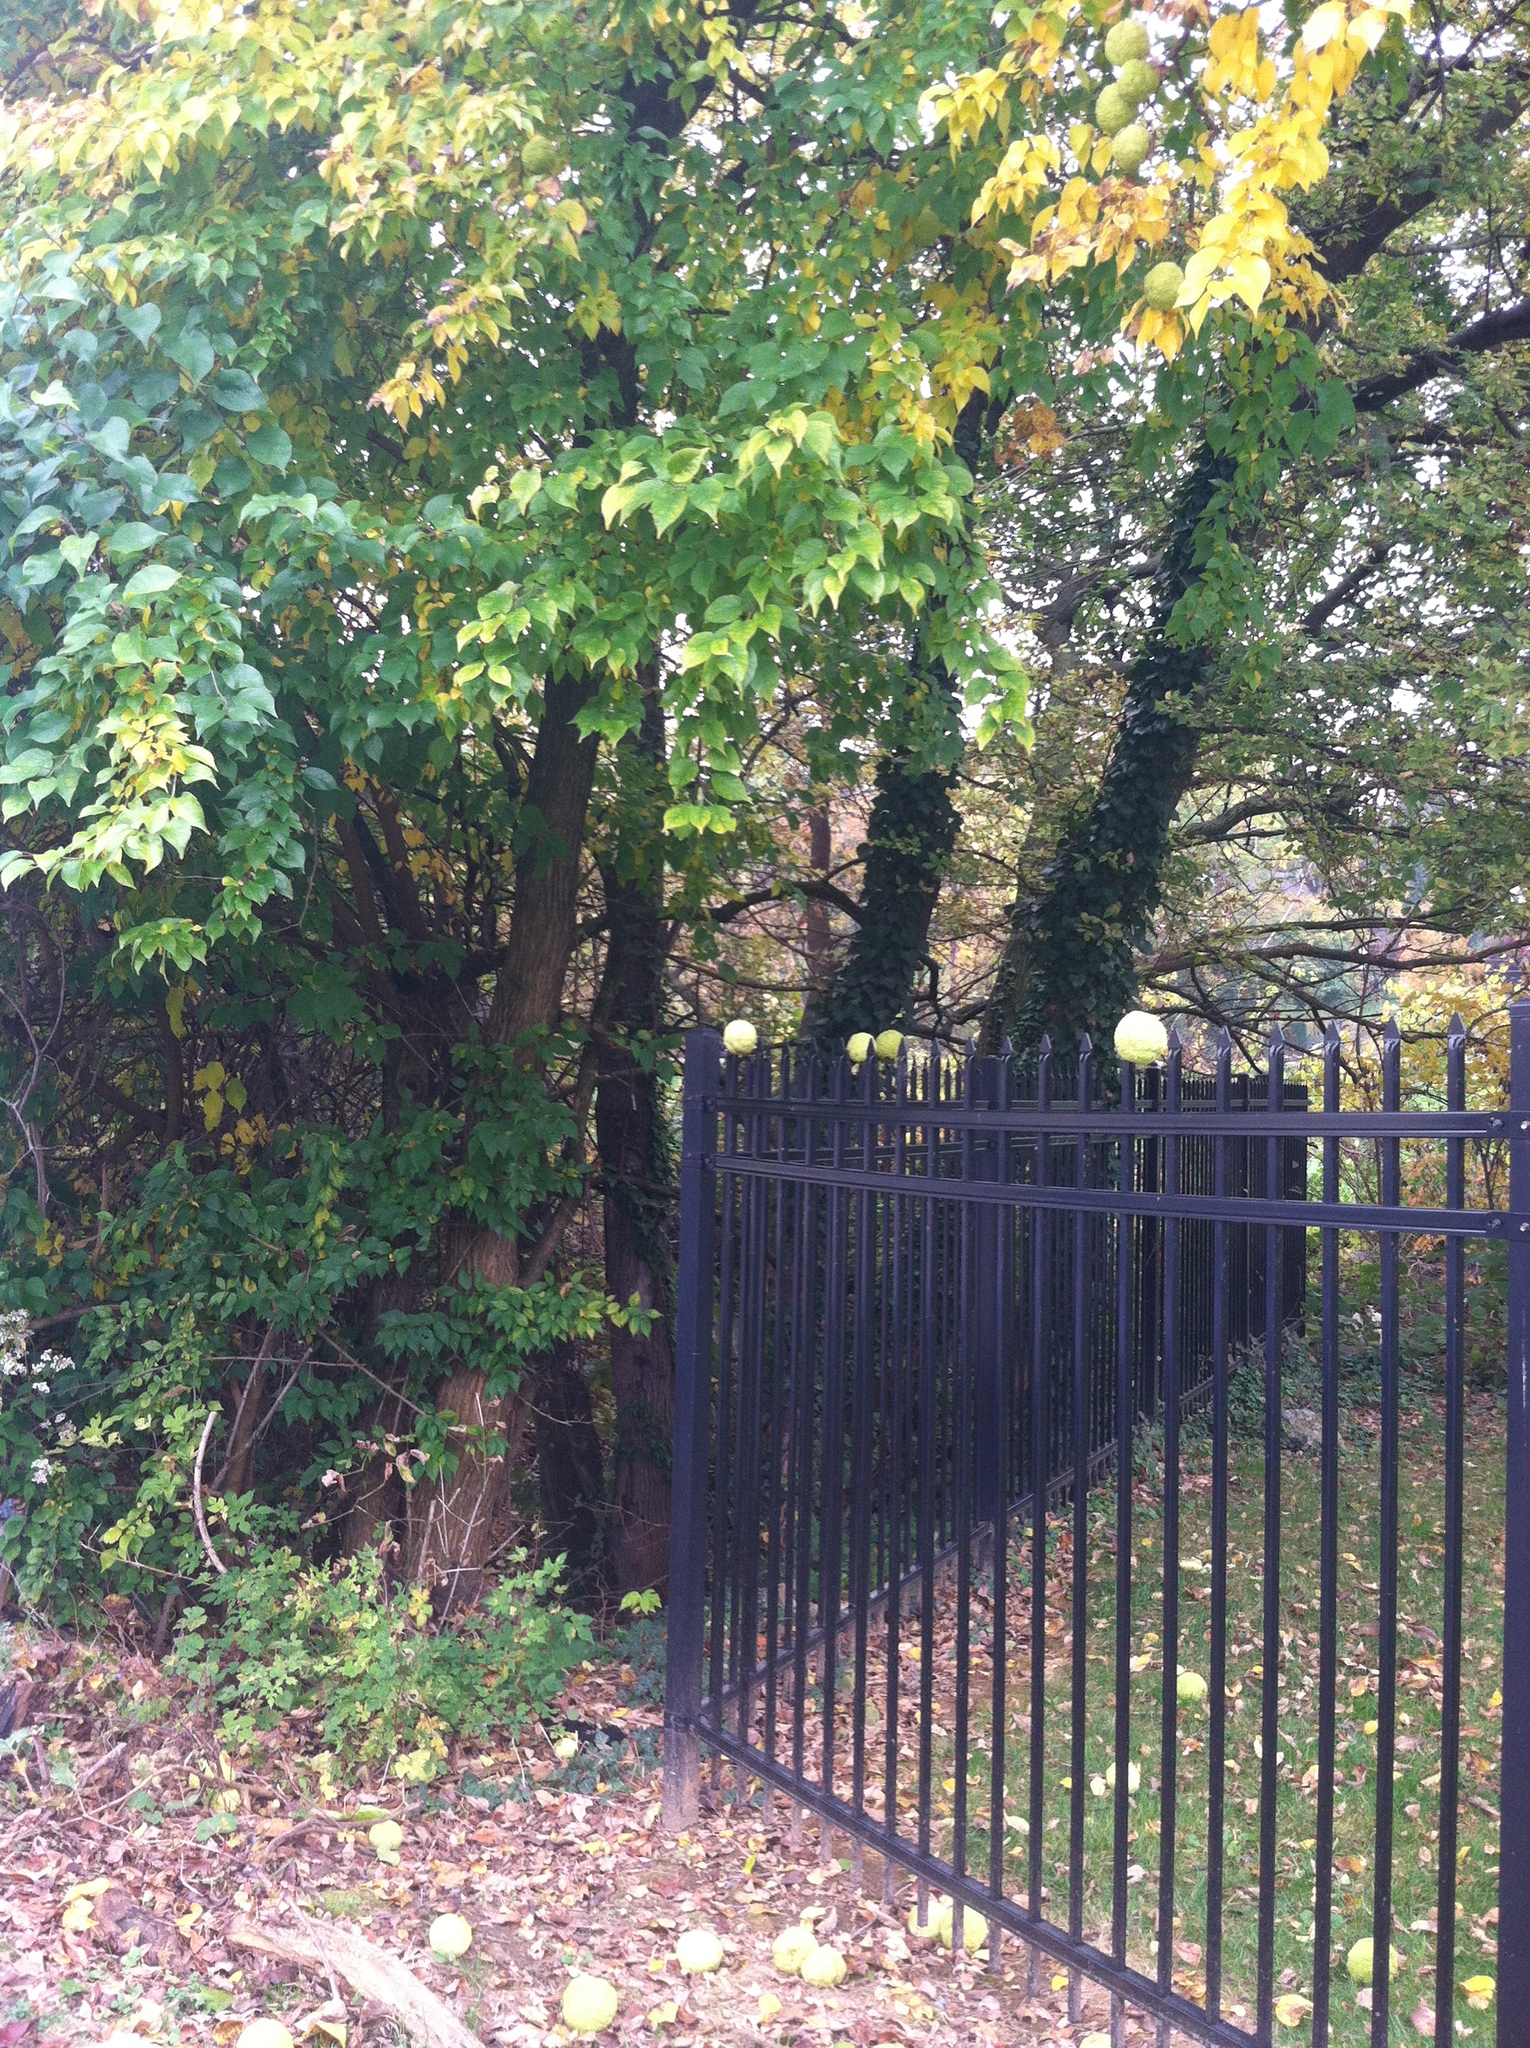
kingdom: Plantae
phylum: Tracheophyta
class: Magnoliopsida
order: Rosales
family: Moraceae
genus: Maclura
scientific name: Maclura pomifera
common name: Osage-orange
